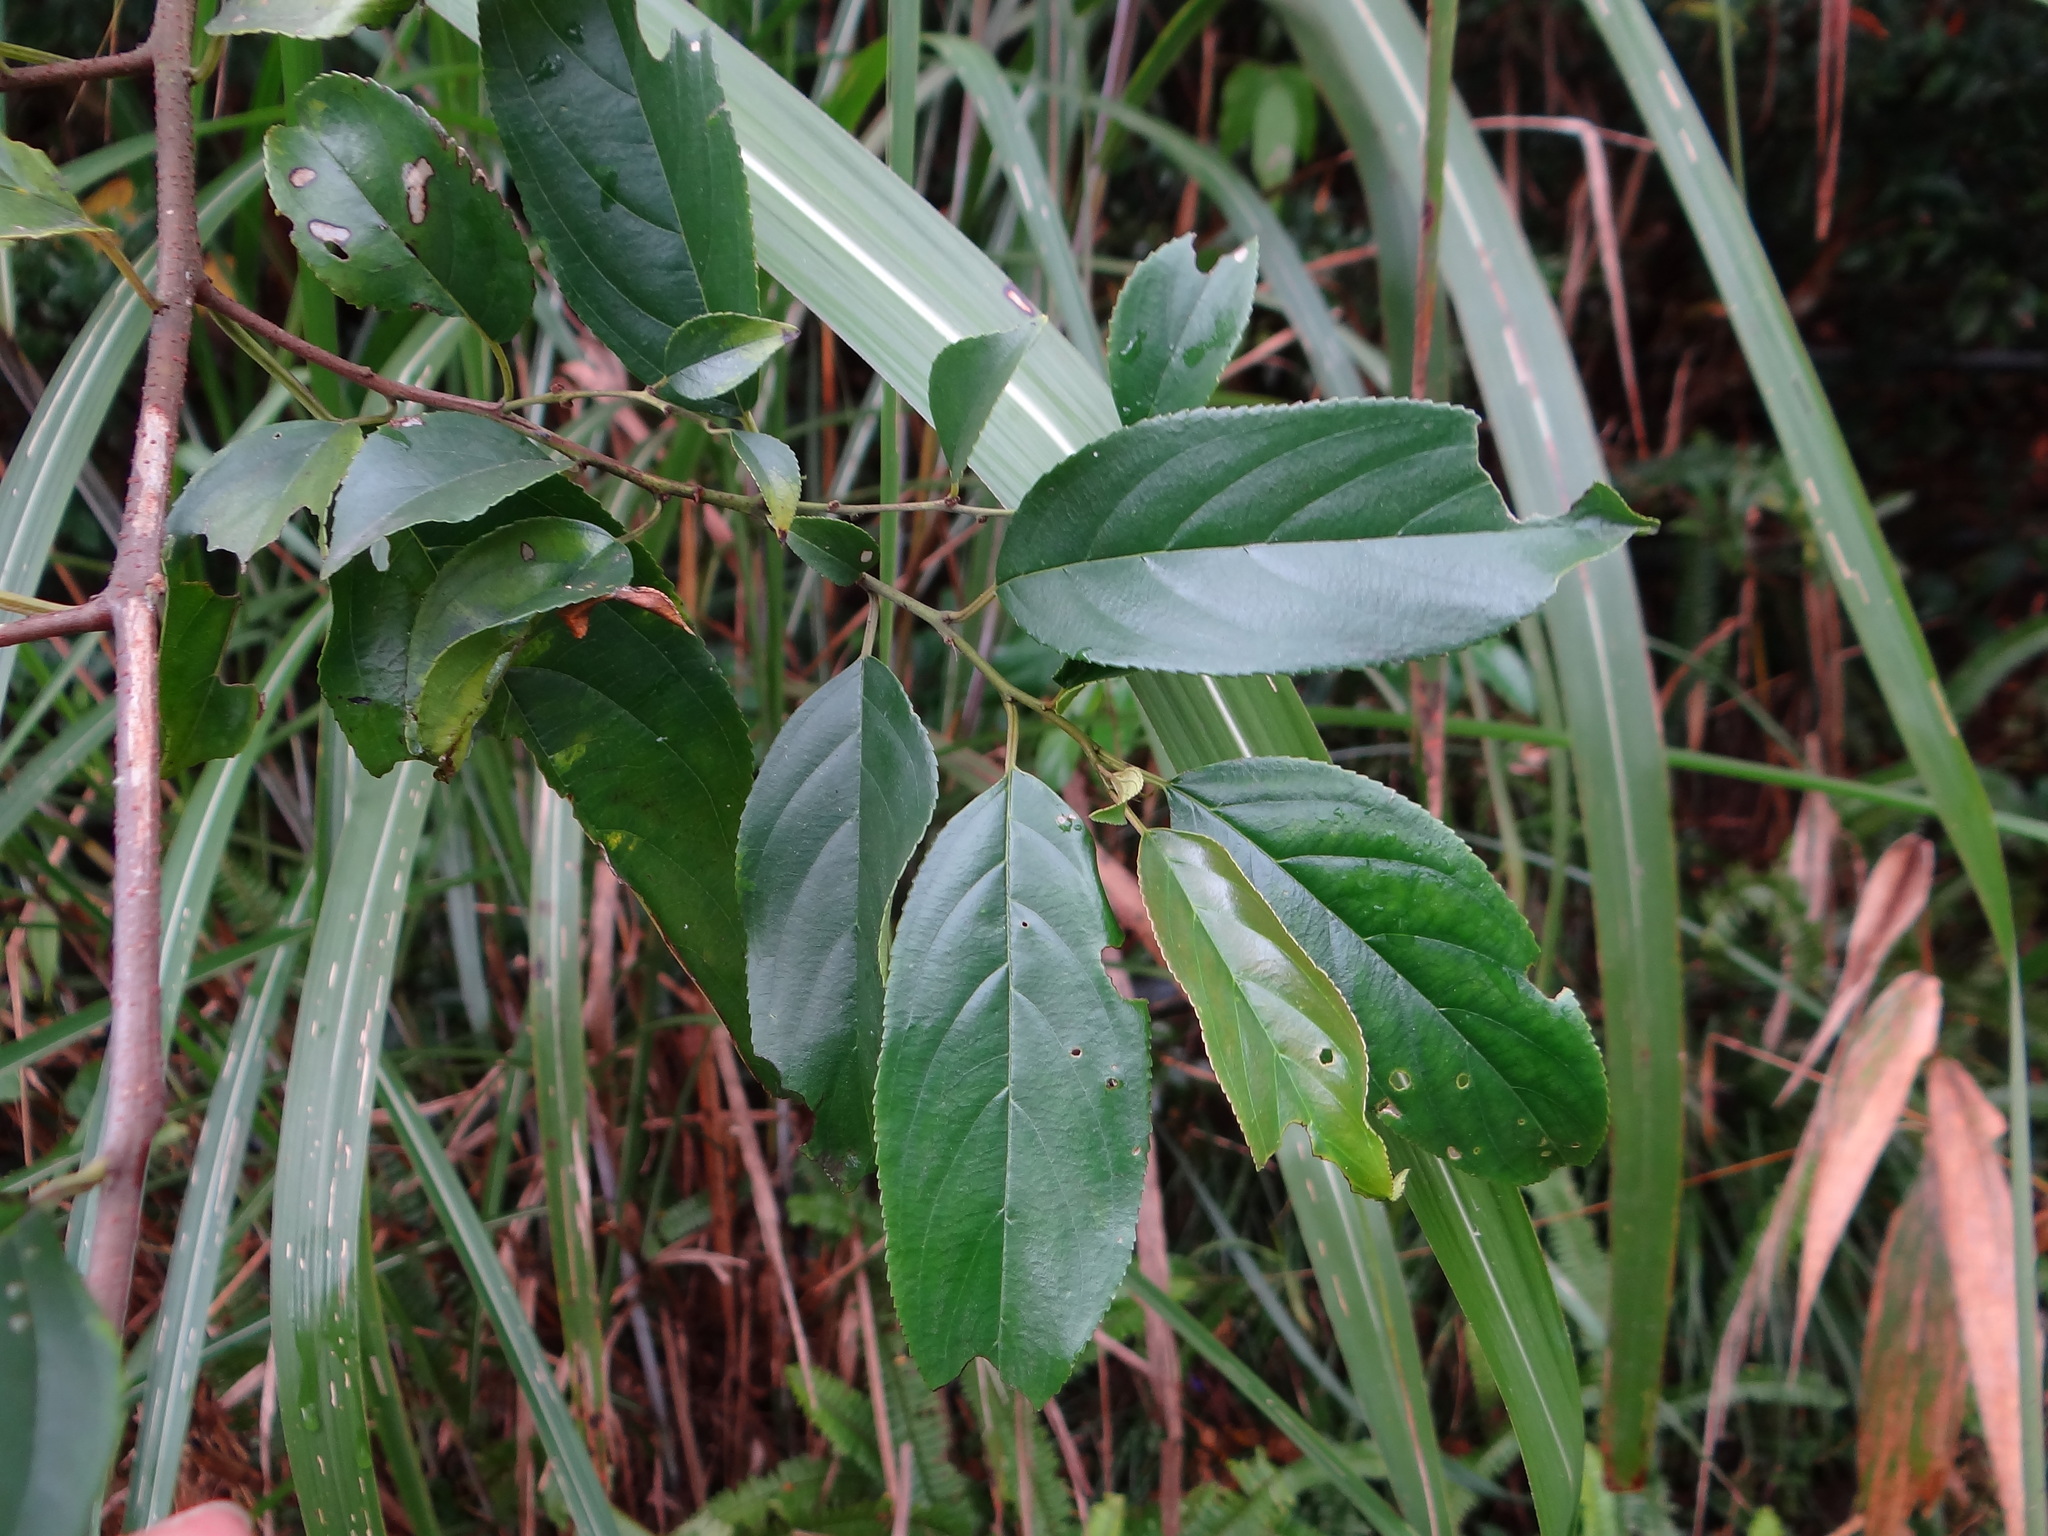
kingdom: Plantae
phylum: Tracheophyta
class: Magnoliopsida
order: Rosales
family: Rhamnaceae
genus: Rhamnus
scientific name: Rhamnus formosana
